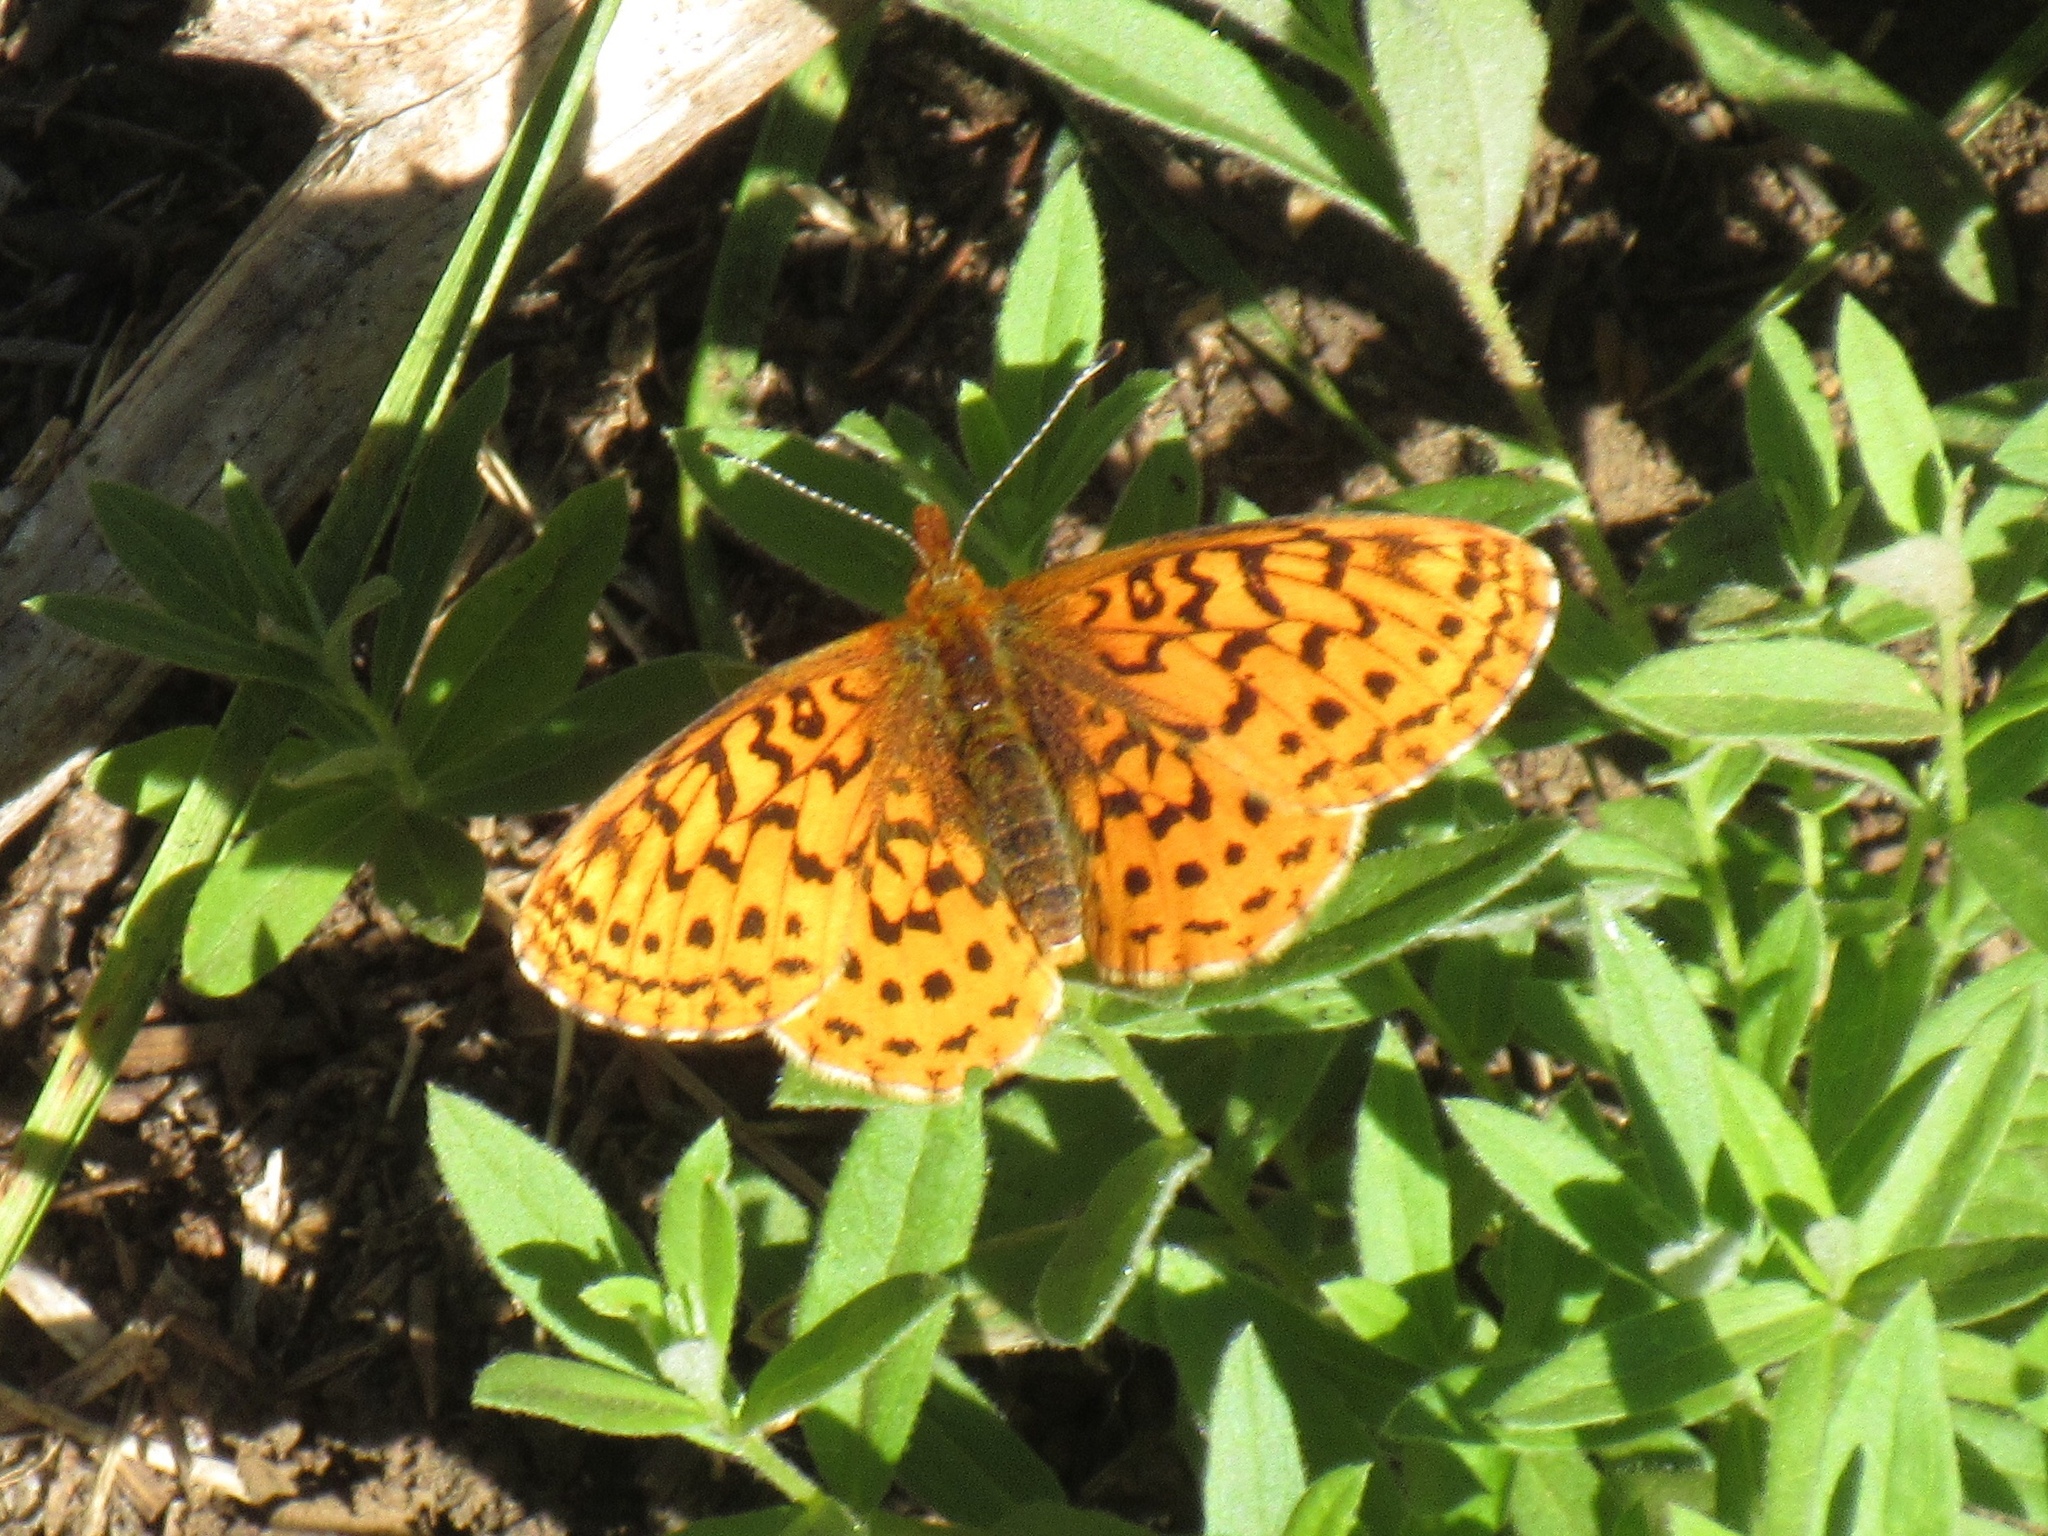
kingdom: Animalia
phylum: Arthropoda
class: Insecta
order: Lepidoptera
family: Nymphalidae
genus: Boloria
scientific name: Boloria epithore
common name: Pacific fritillary
